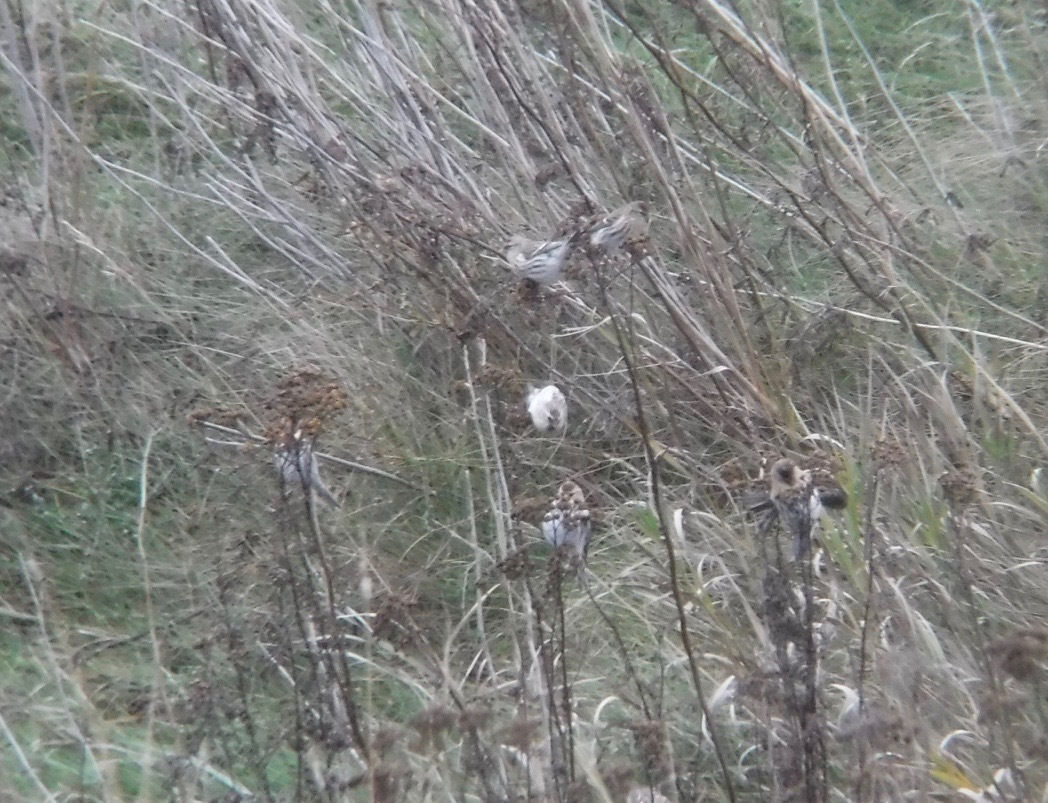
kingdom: Animalia
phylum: Chordata
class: Aves
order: Passeriformes
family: Fringillidae
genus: Acanthis
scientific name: Acanthis hornemanni
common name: Arctic redpoll
